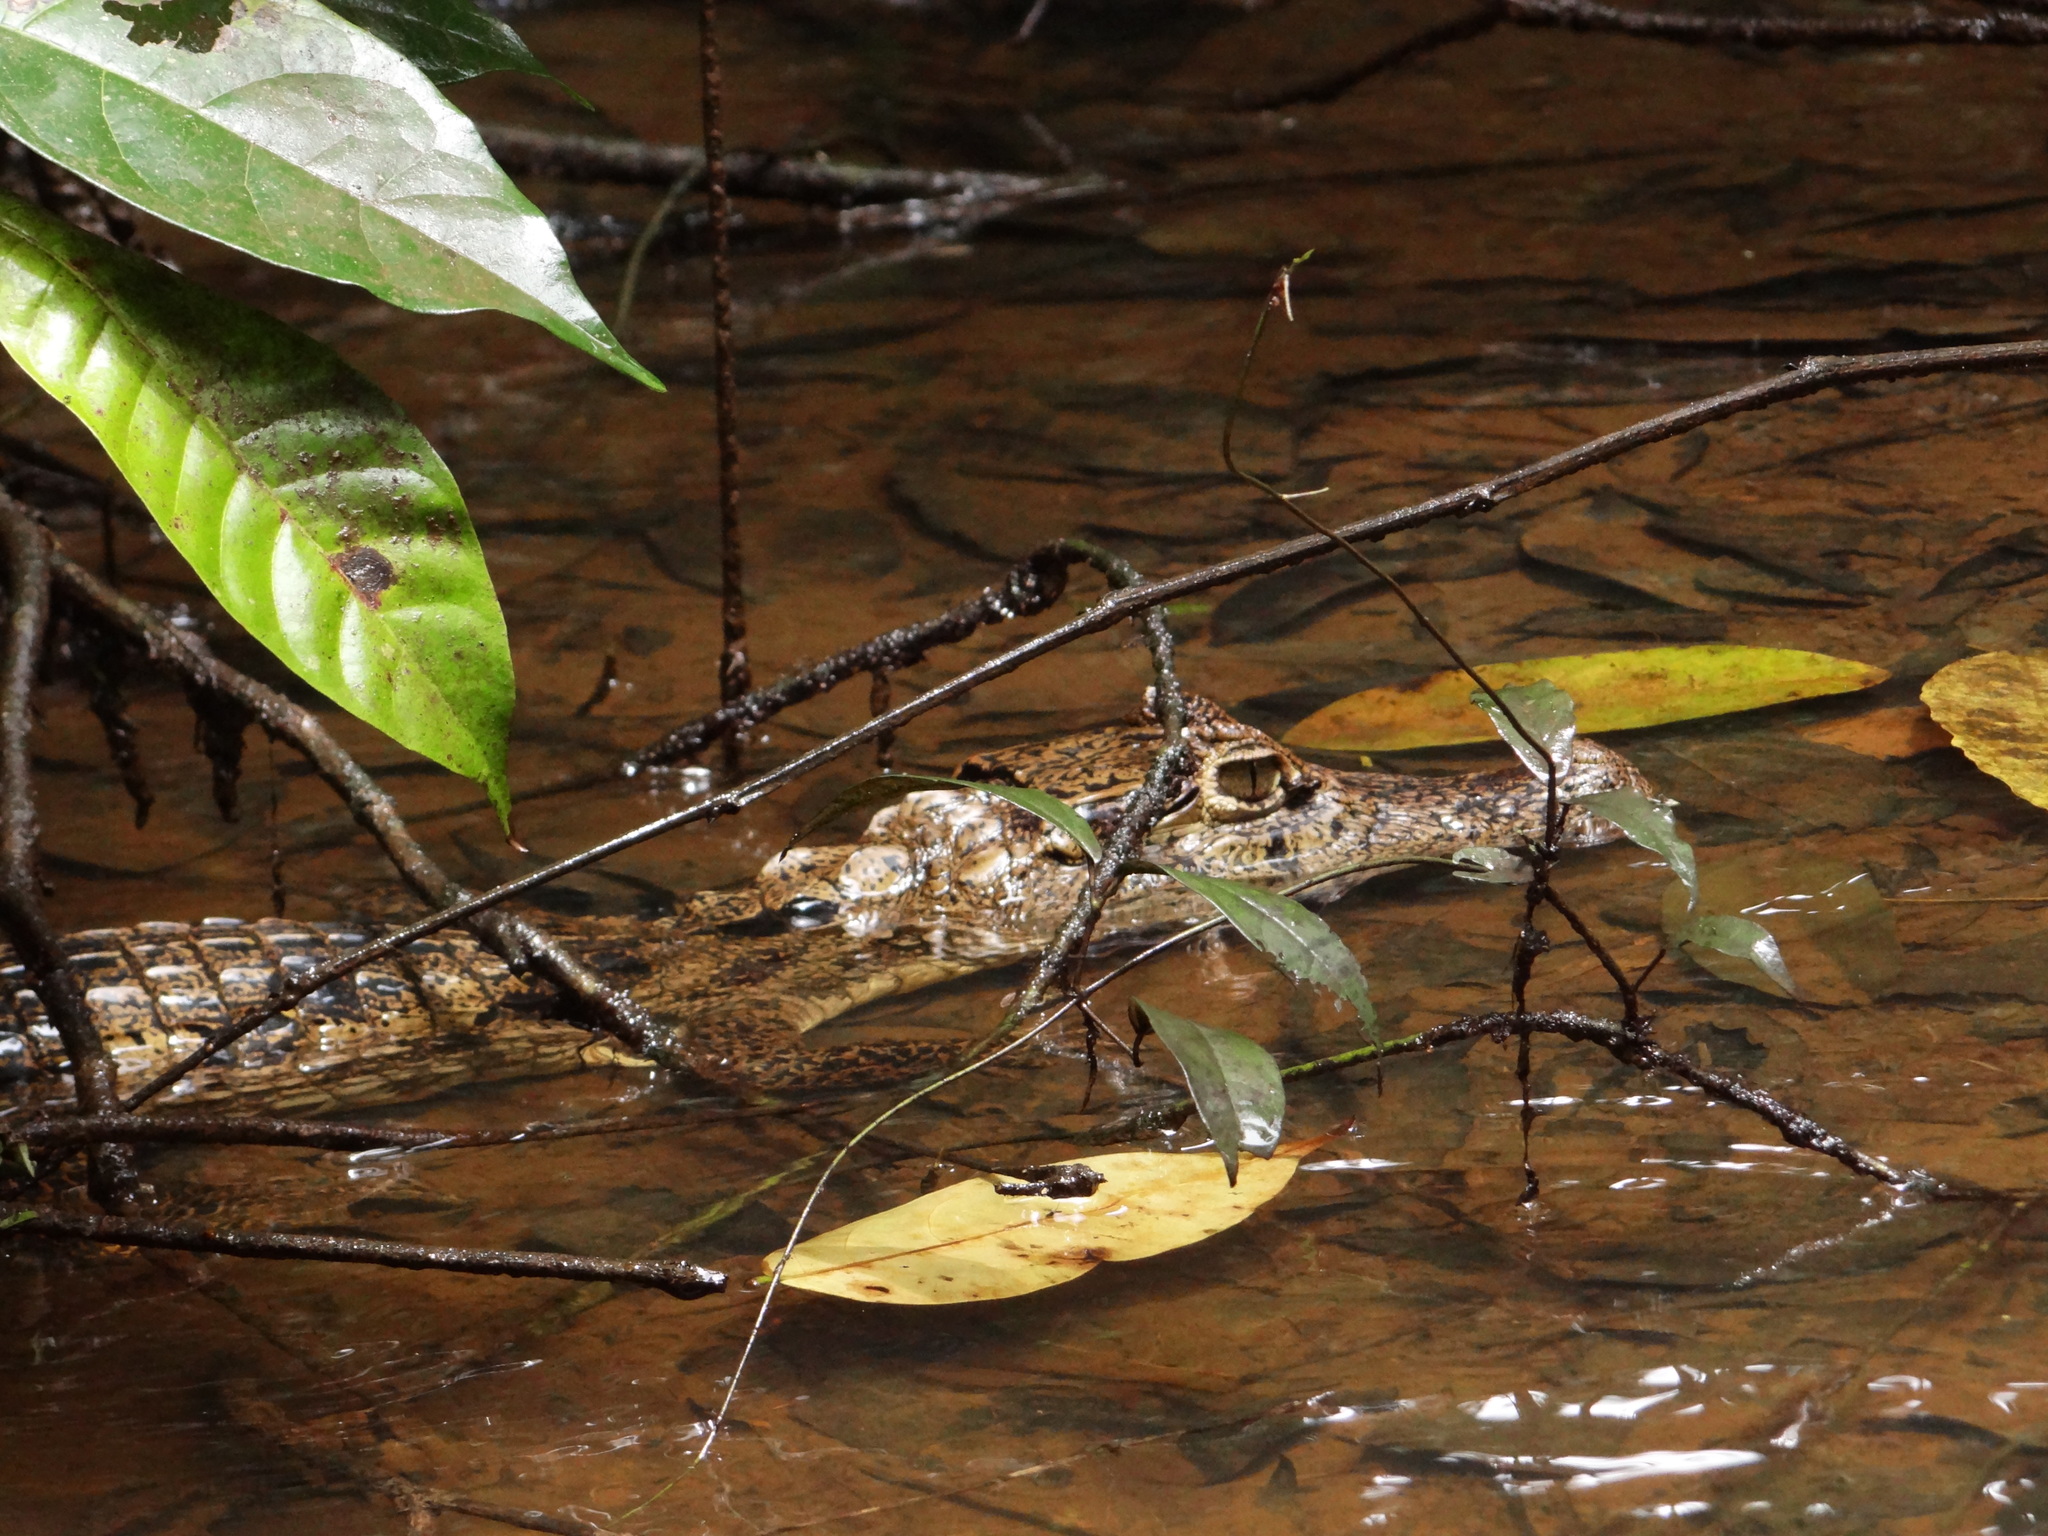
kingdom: Animalia
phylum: Chordata
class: Crocodylia
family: Alligatoridae
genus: Caiman
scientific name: Caiman crocodilus
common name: Common caiman
